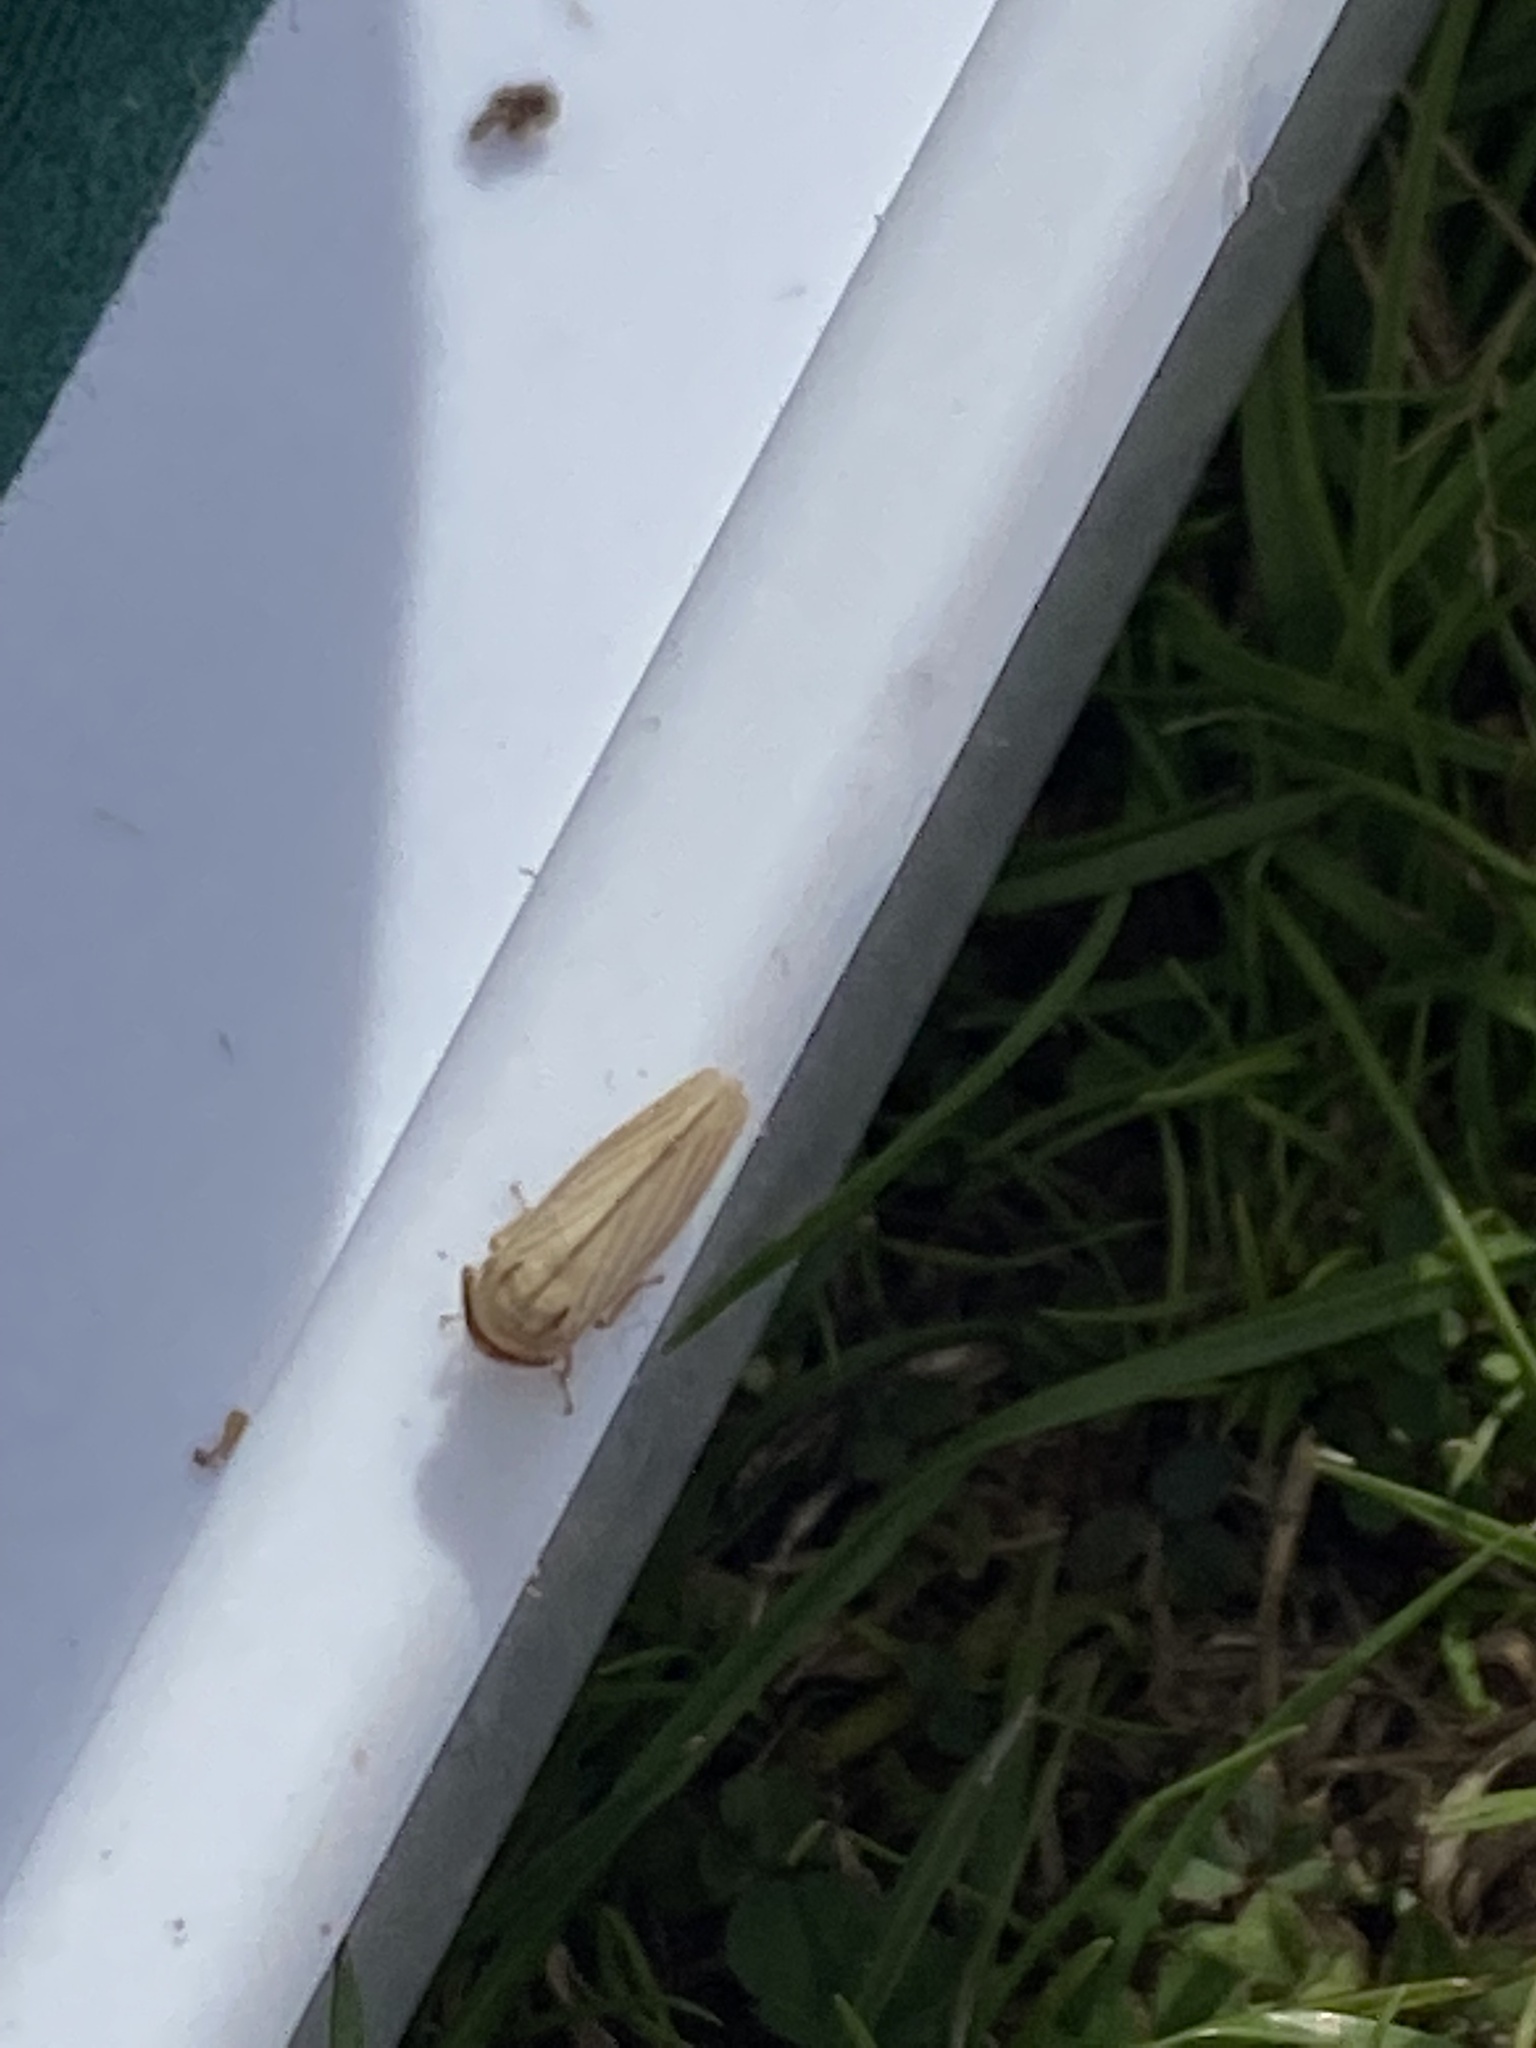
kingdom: Animalia
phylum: Arthropoda
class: Insecta
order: Hemiptera
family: Cicadellidae
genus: Athysanus
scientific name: Athysanus argentarius
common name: Silver leafhopper
